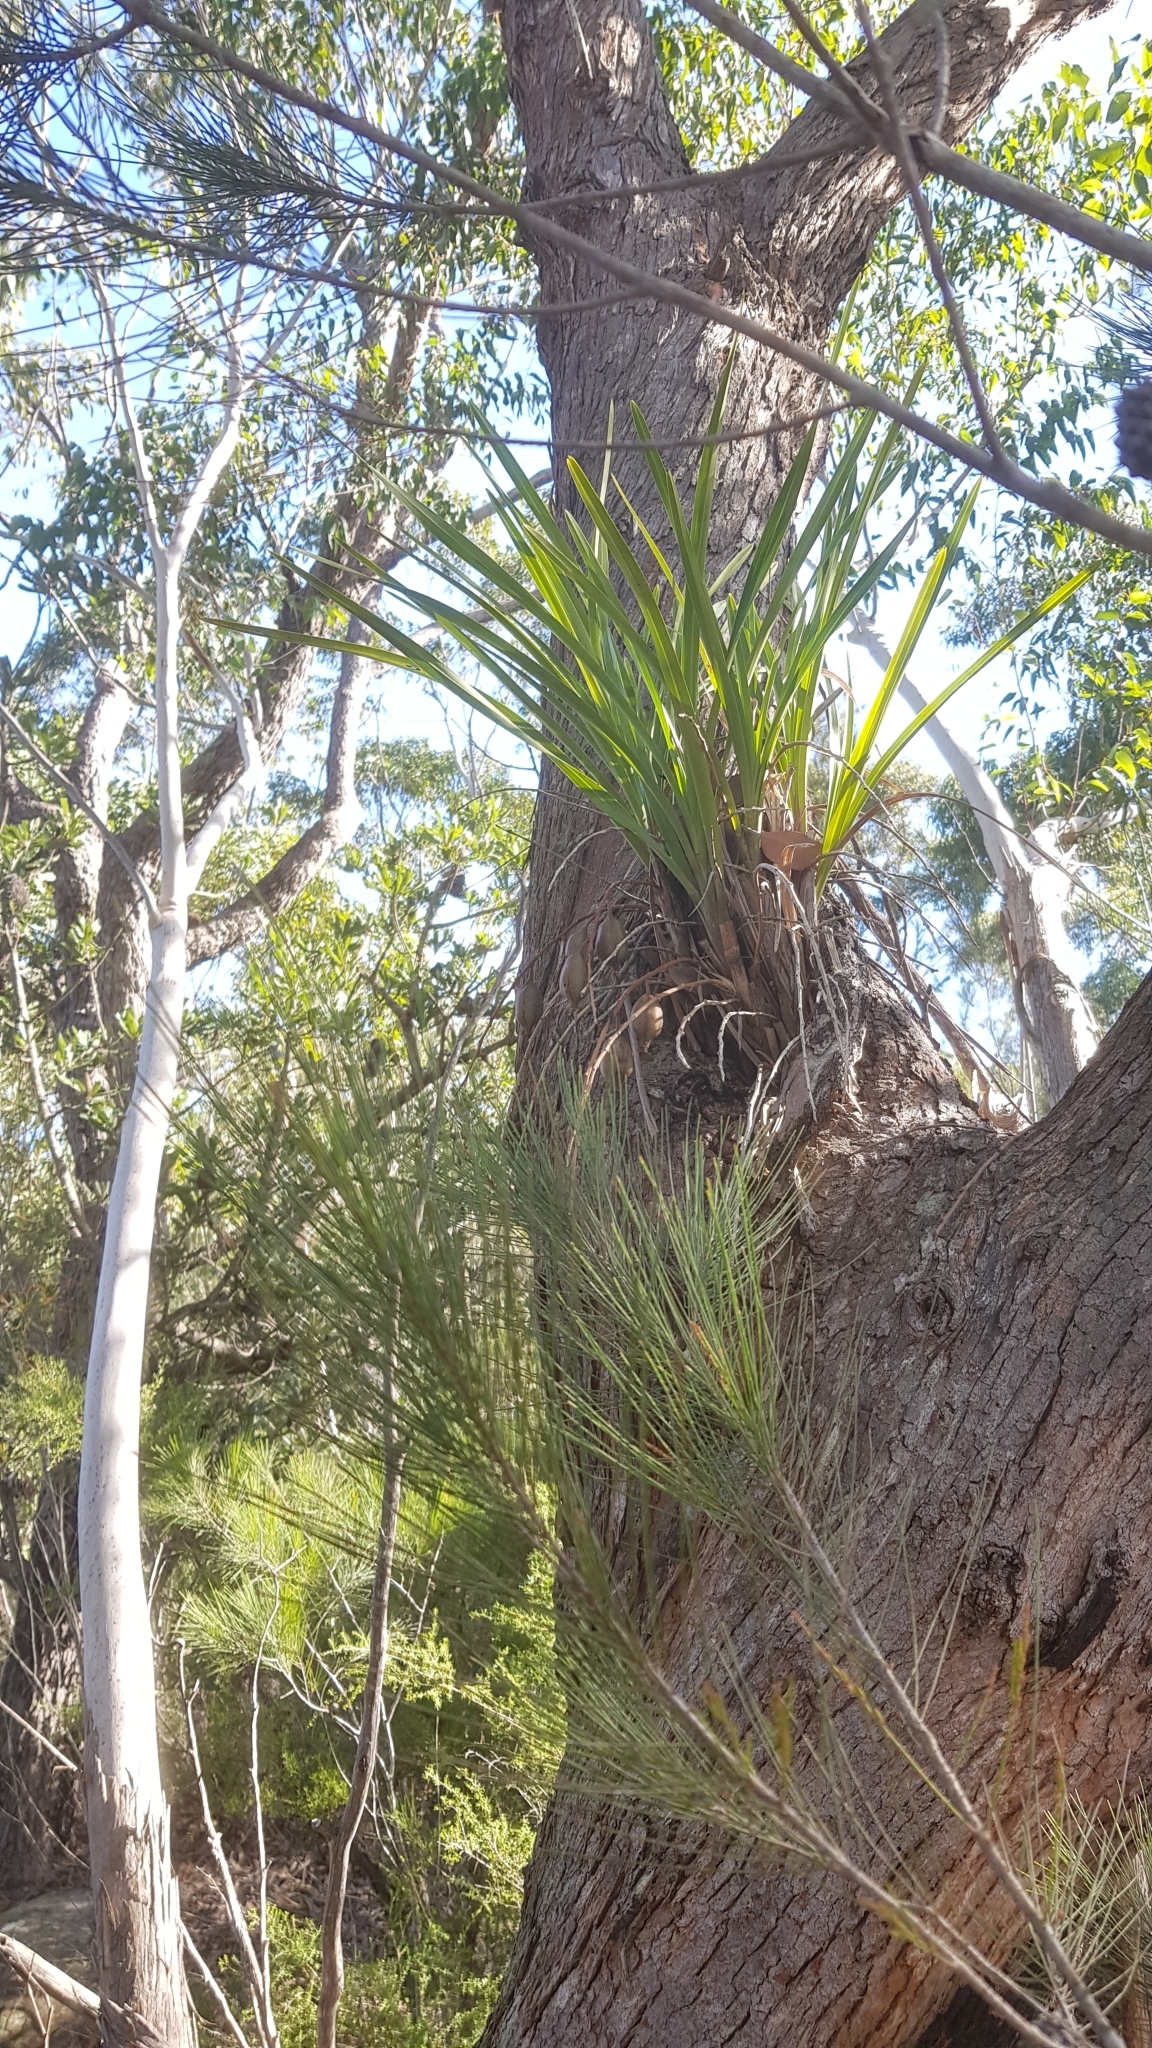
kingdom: Plantae
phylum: Tracheophyta
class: Liliopsida
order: Asparagales
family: Orchidaceae
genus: Cymbidium
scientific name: Cymbidium suave
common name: Snake orchid
